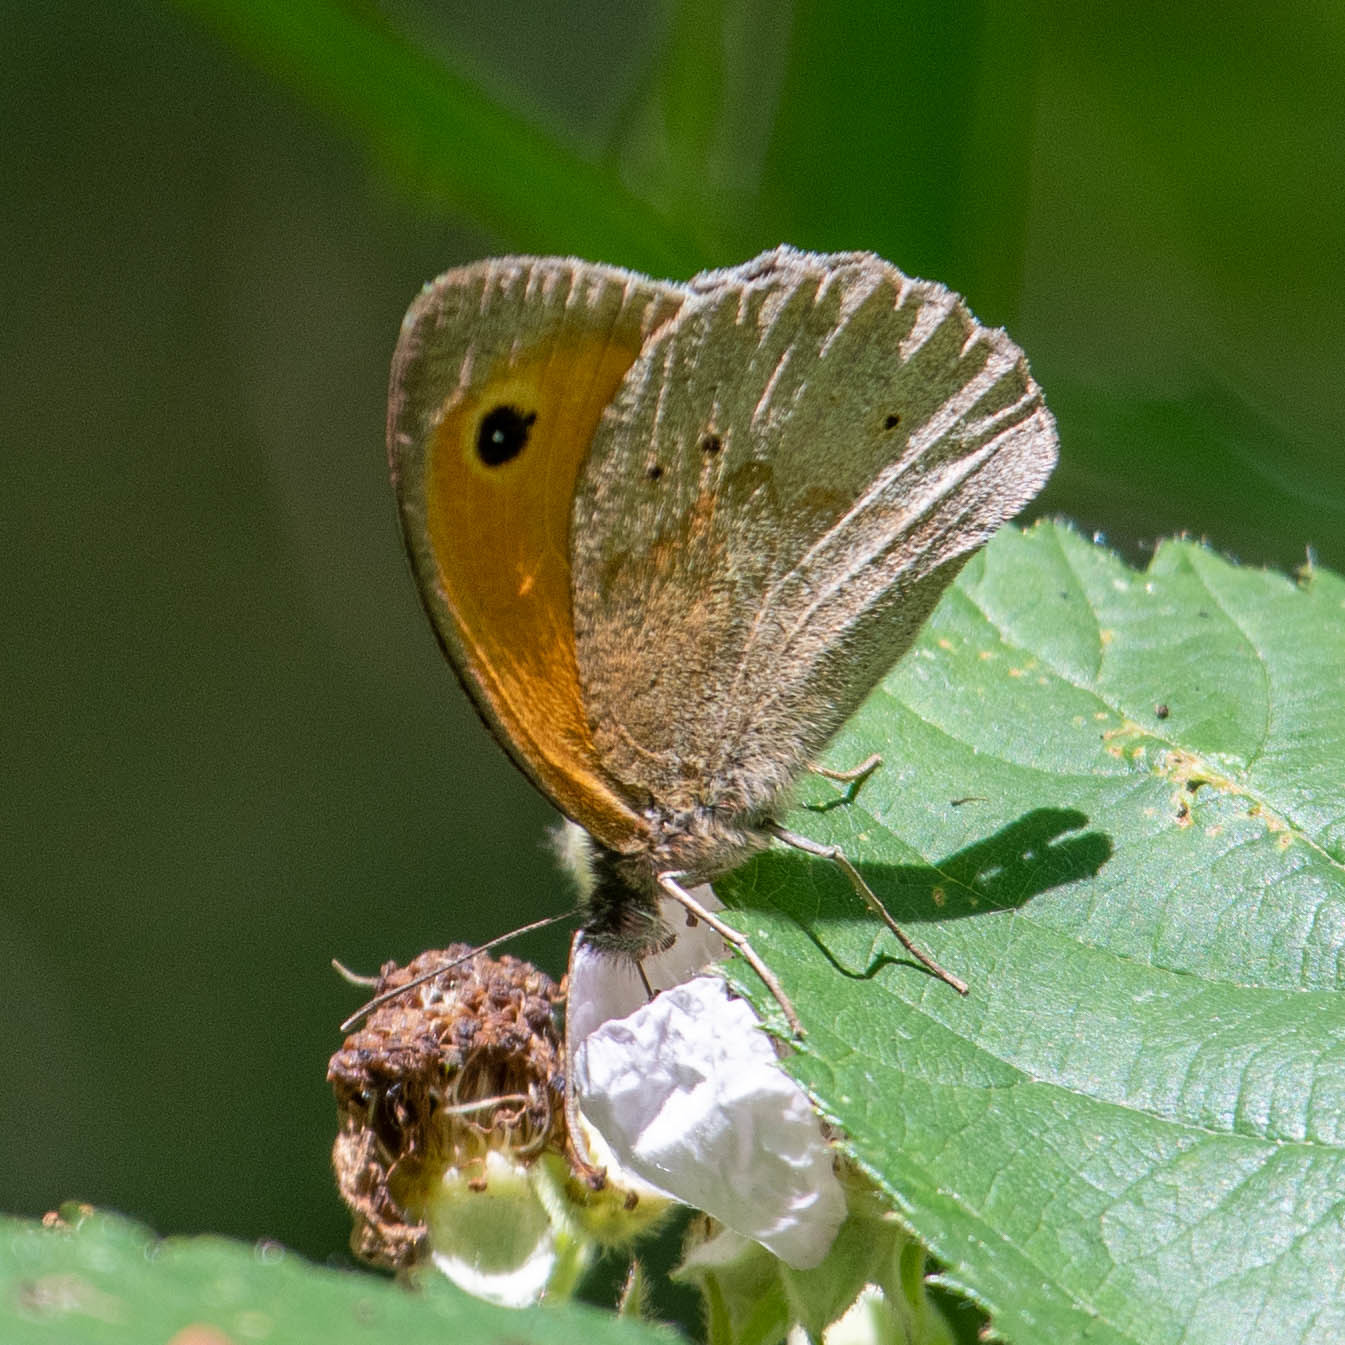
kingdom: Animalia
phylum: Arthropoda
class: Insecta
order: Lepidoptera
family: Nymphalidae
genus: Maniola
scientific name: Maniola jurtina
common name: Meadow brown
